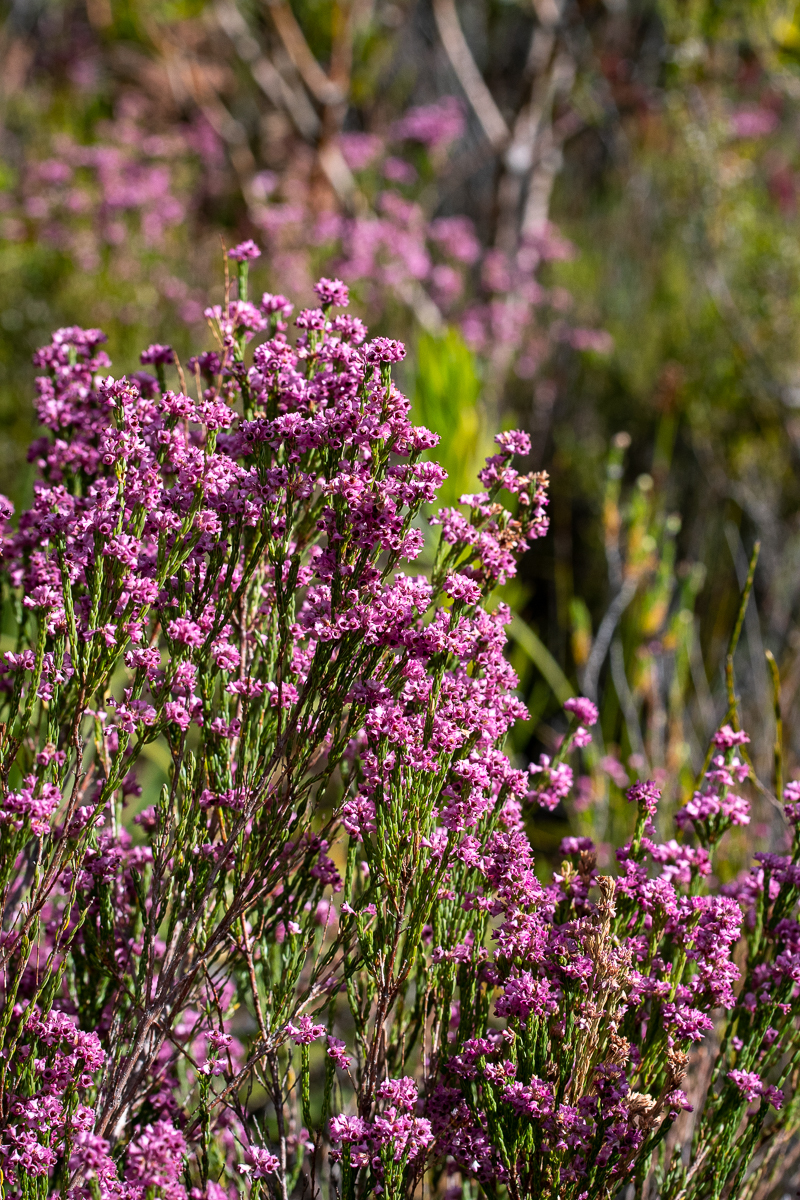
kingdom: Plantae
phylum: Tracheophyta
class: Magnoliopsida
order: Ericales
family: Ericaceae
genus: Erica
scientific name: Erica corifolia
